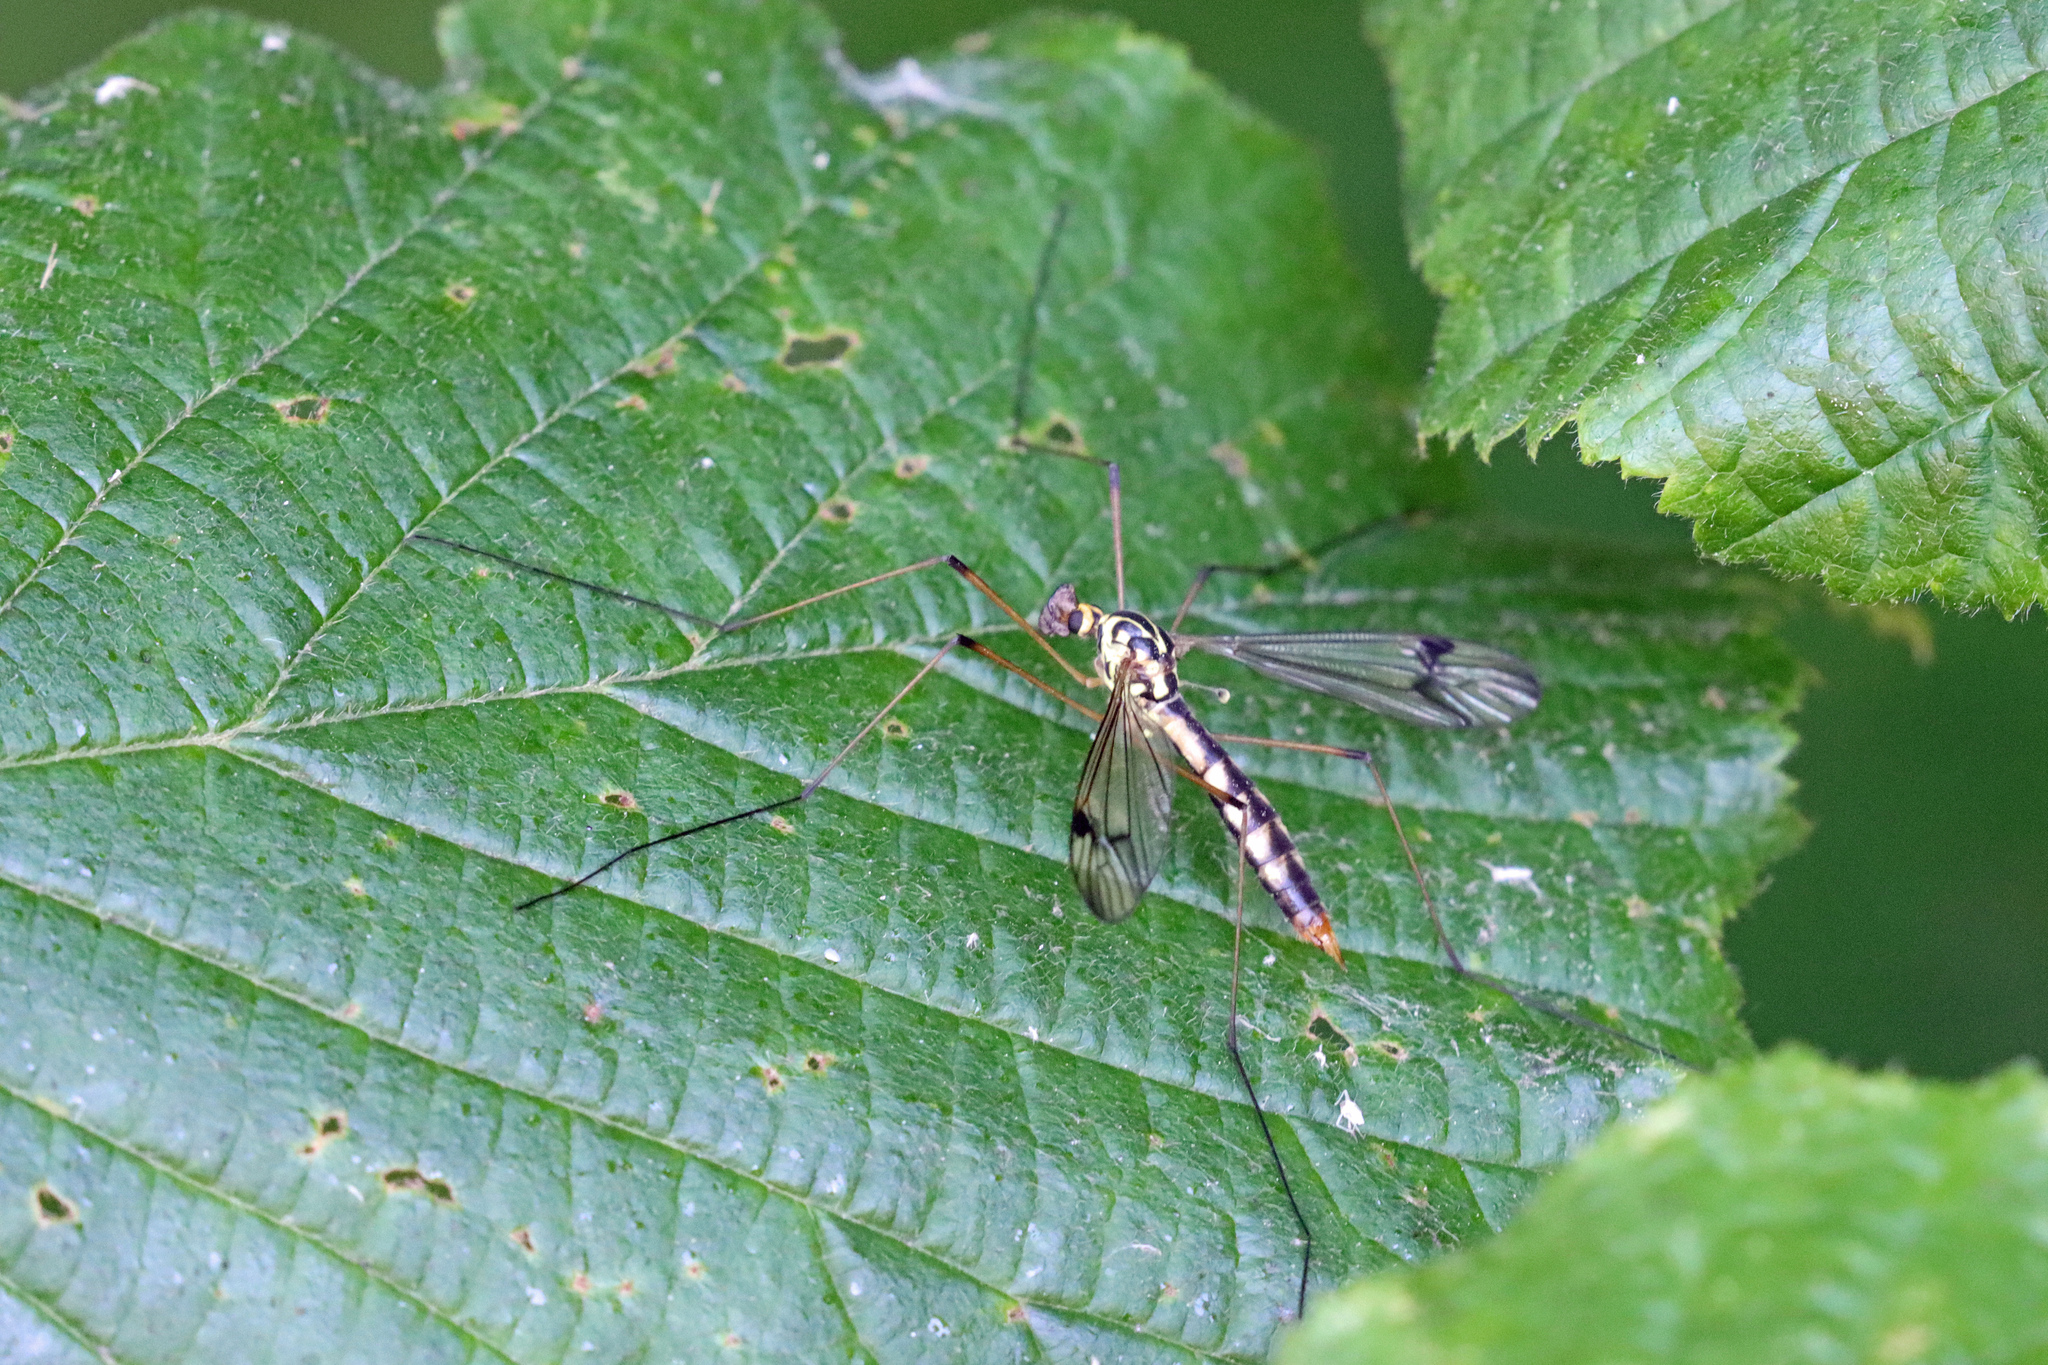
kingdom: Animalia
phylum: Arthropoda
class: Insecta
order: Diptera
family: Tipulidae
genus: Nephrotoma
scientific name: Nephrotoma quadrifaria
